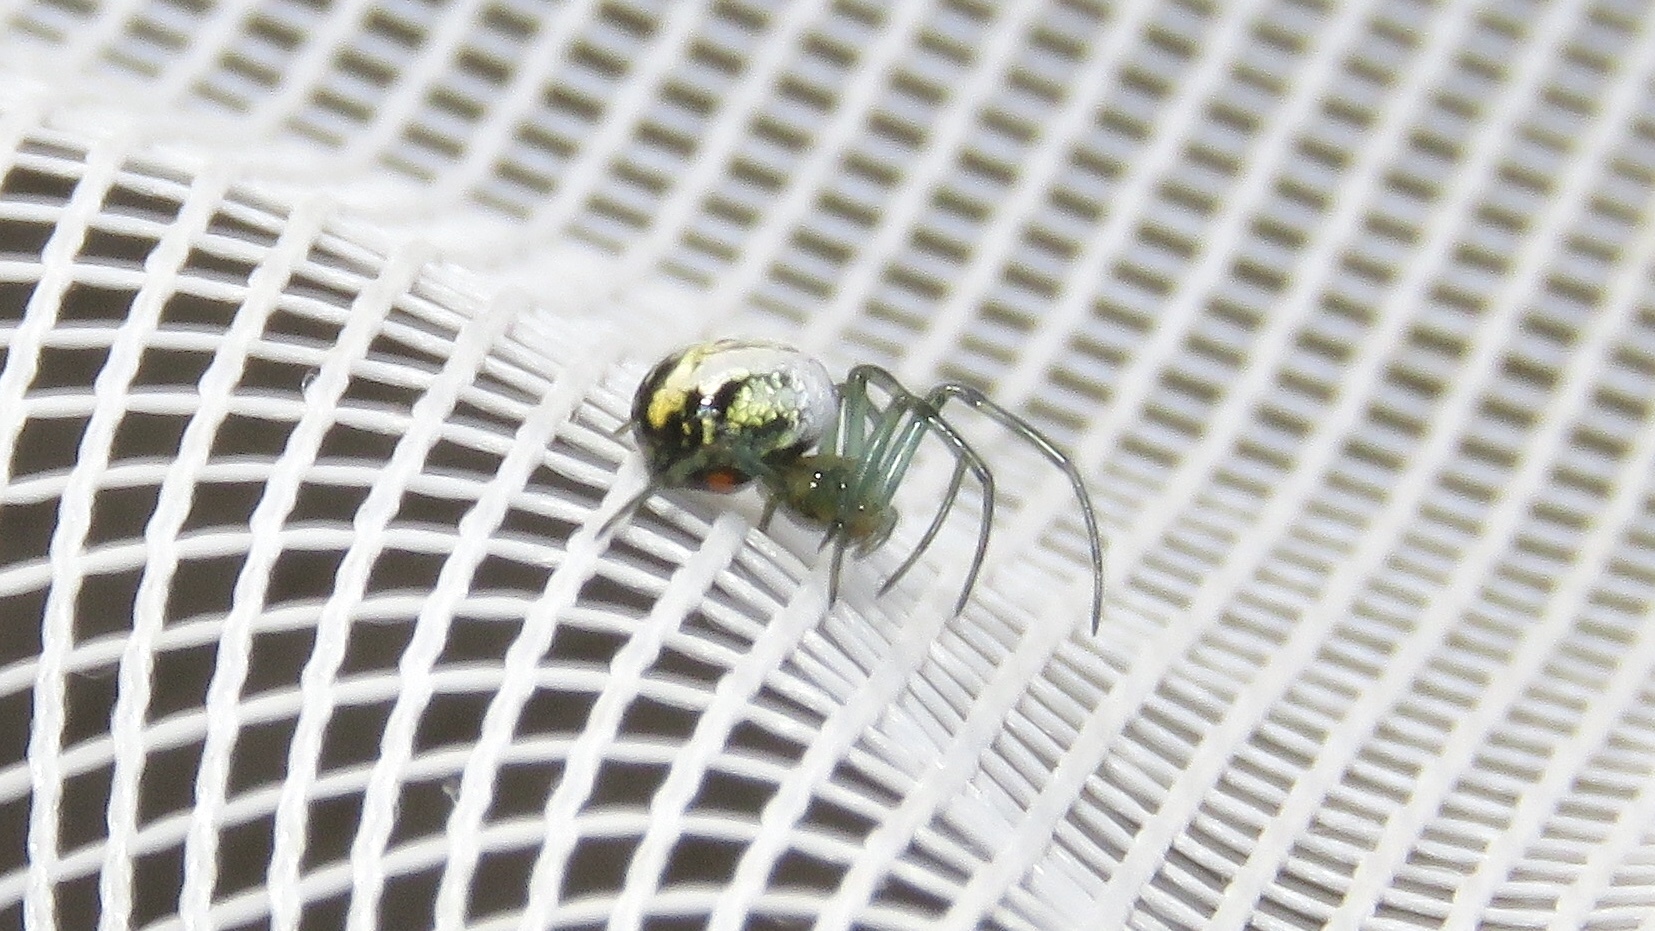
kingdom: Animalia
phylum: Arthropoda
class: Arachnida
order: Araneae
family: Tetragnathidae
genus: Leucauge
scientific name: Leucauge venusta
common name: Longjawed orb weavers
